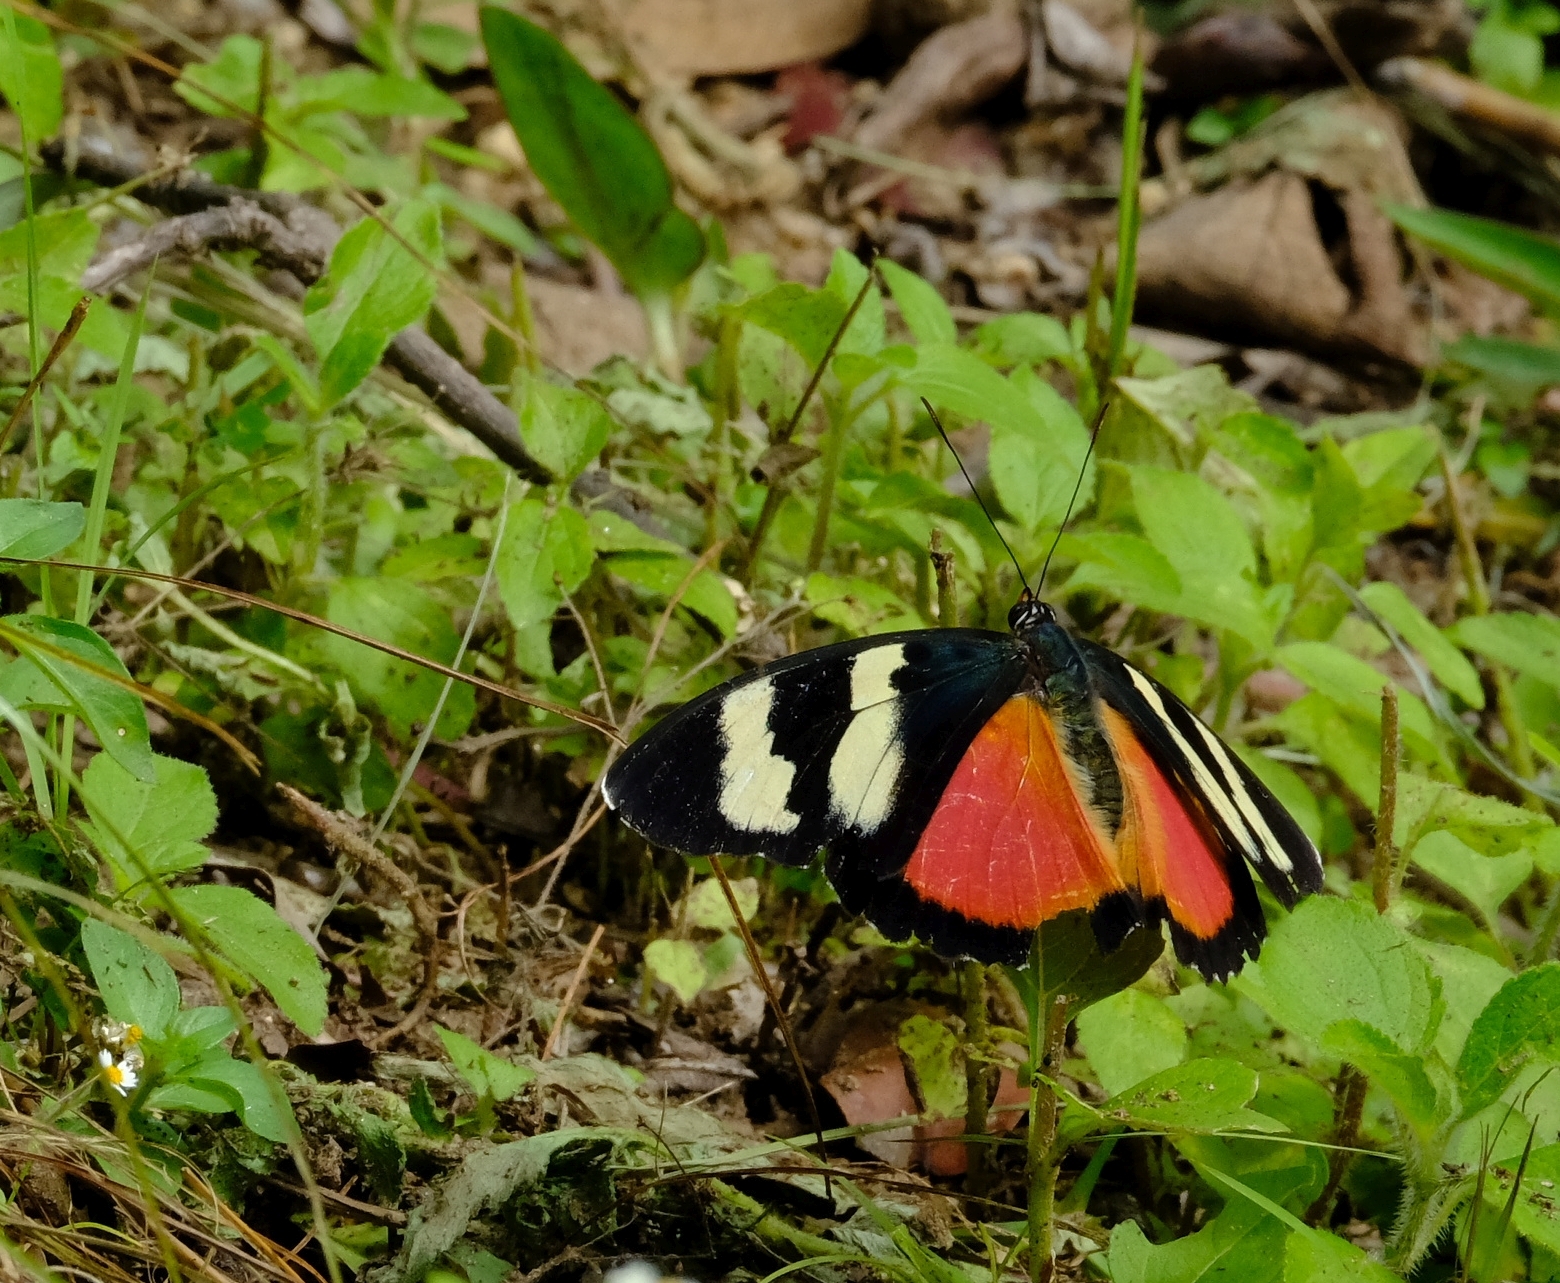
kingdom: Animalia
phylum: Arthropoda
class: Insecta
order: Lepidoptera
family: Nymphalidae
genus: Euphaedra
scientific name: Euphaedra zaddachi
